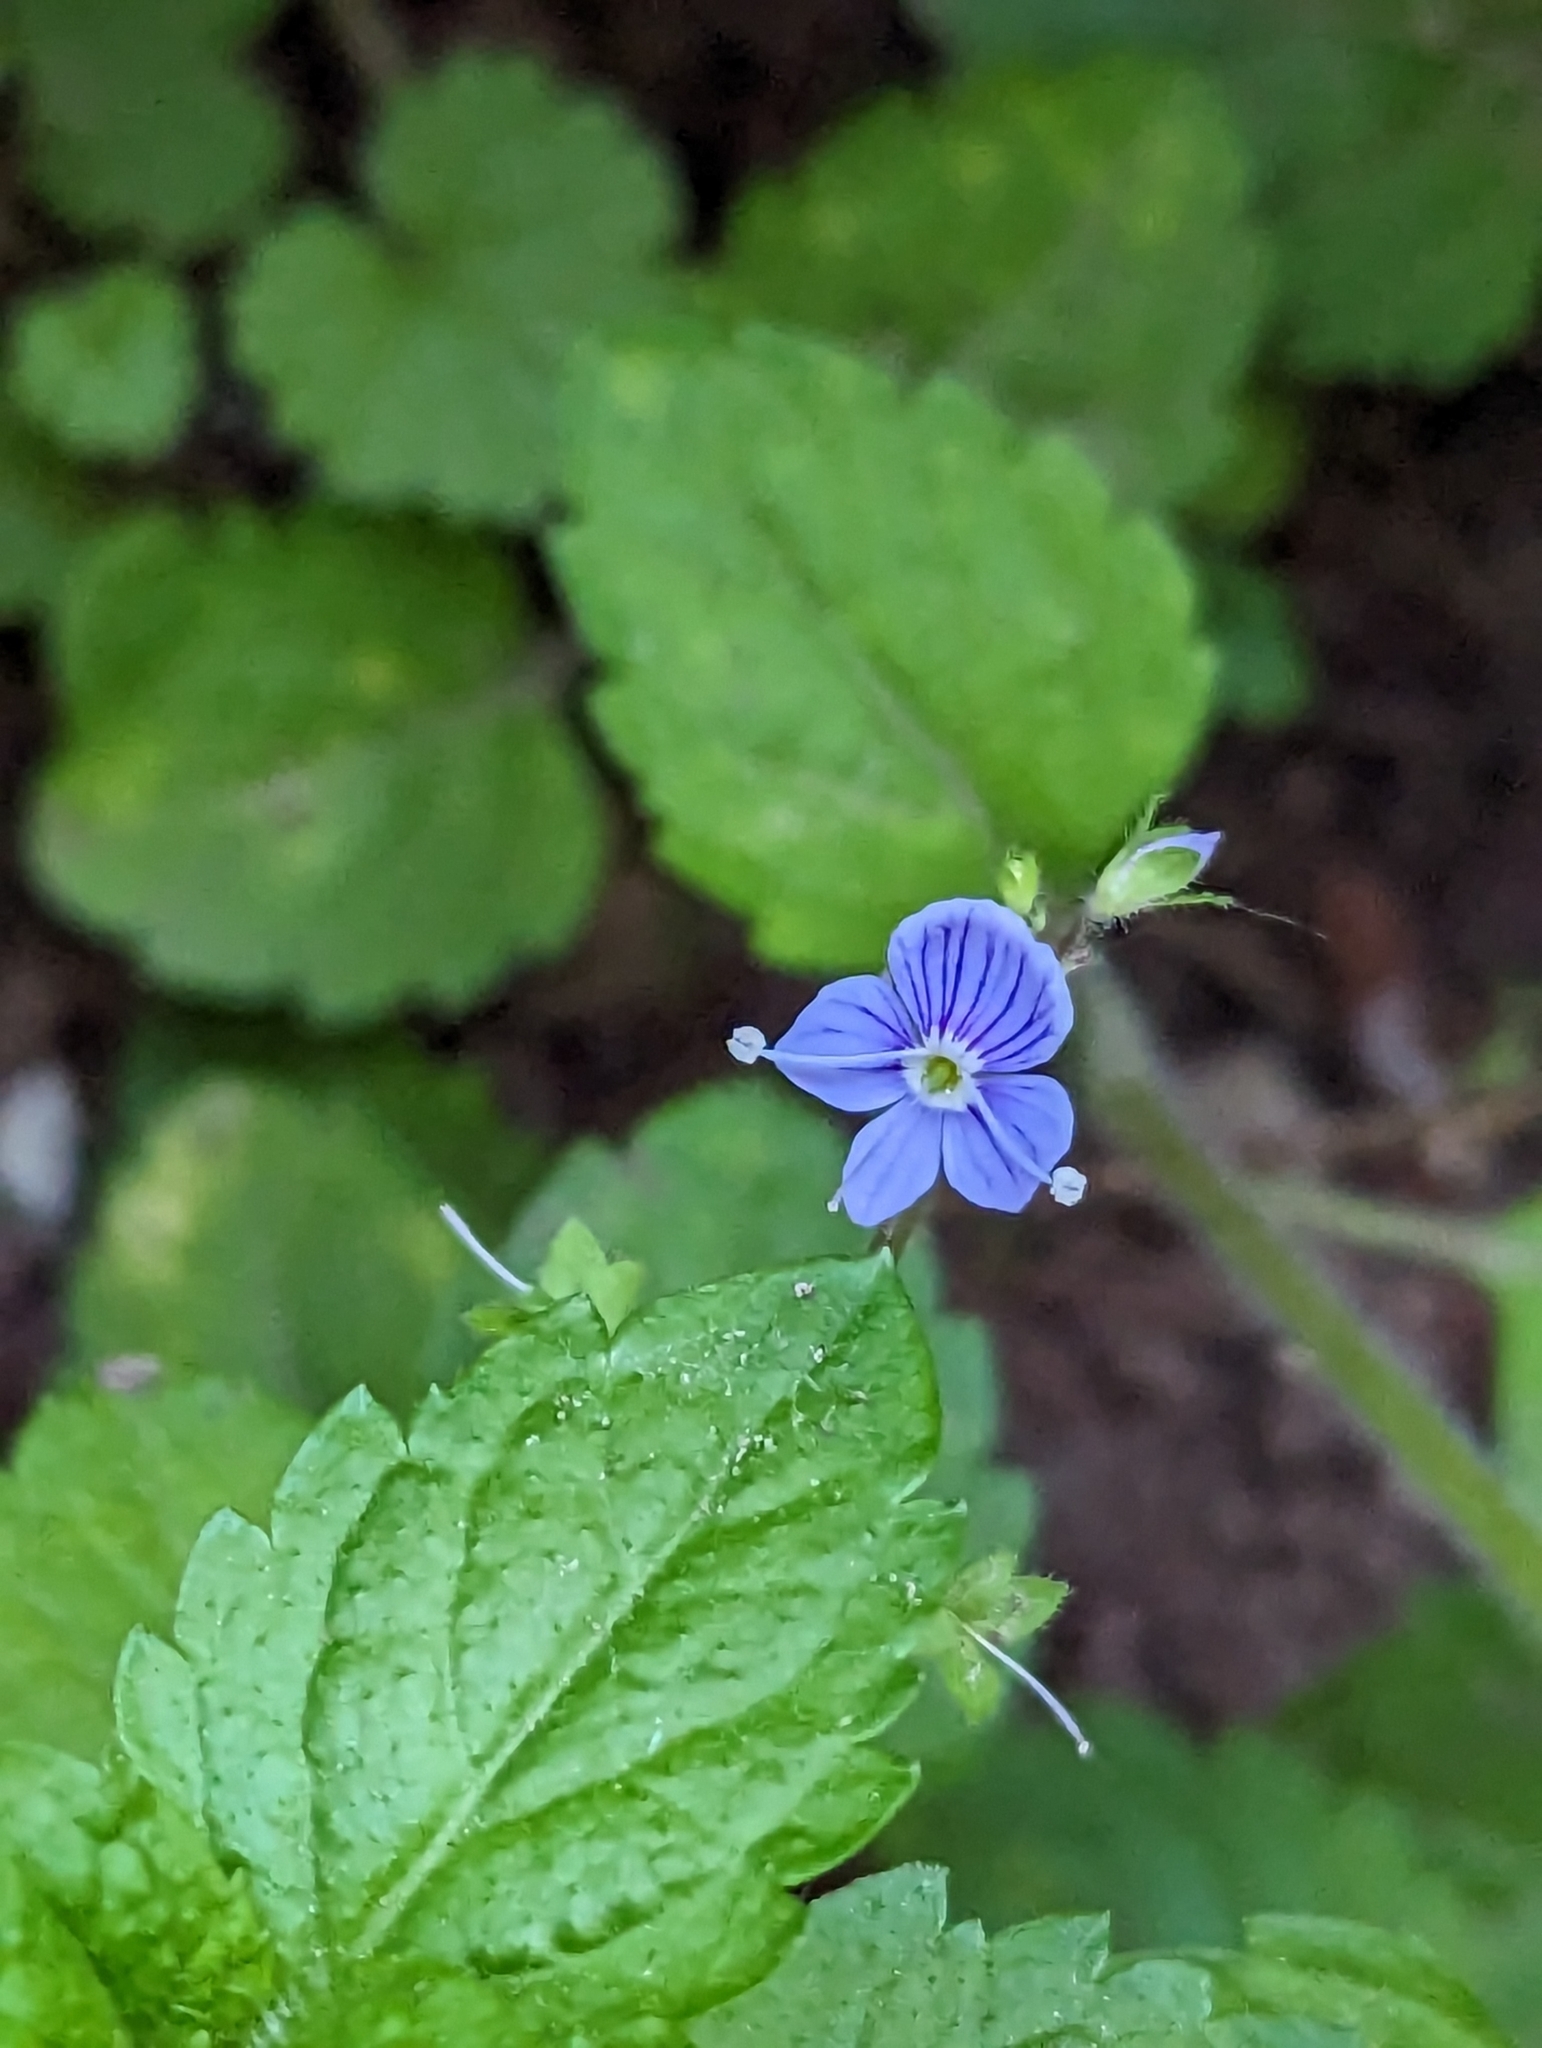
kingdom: Plantae
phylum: Tracheophyta
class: Magnoliopsida
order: Lamiales
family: Plantaginaceae
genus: Veronica
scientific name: Veronica montana
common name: Wood speedwell
